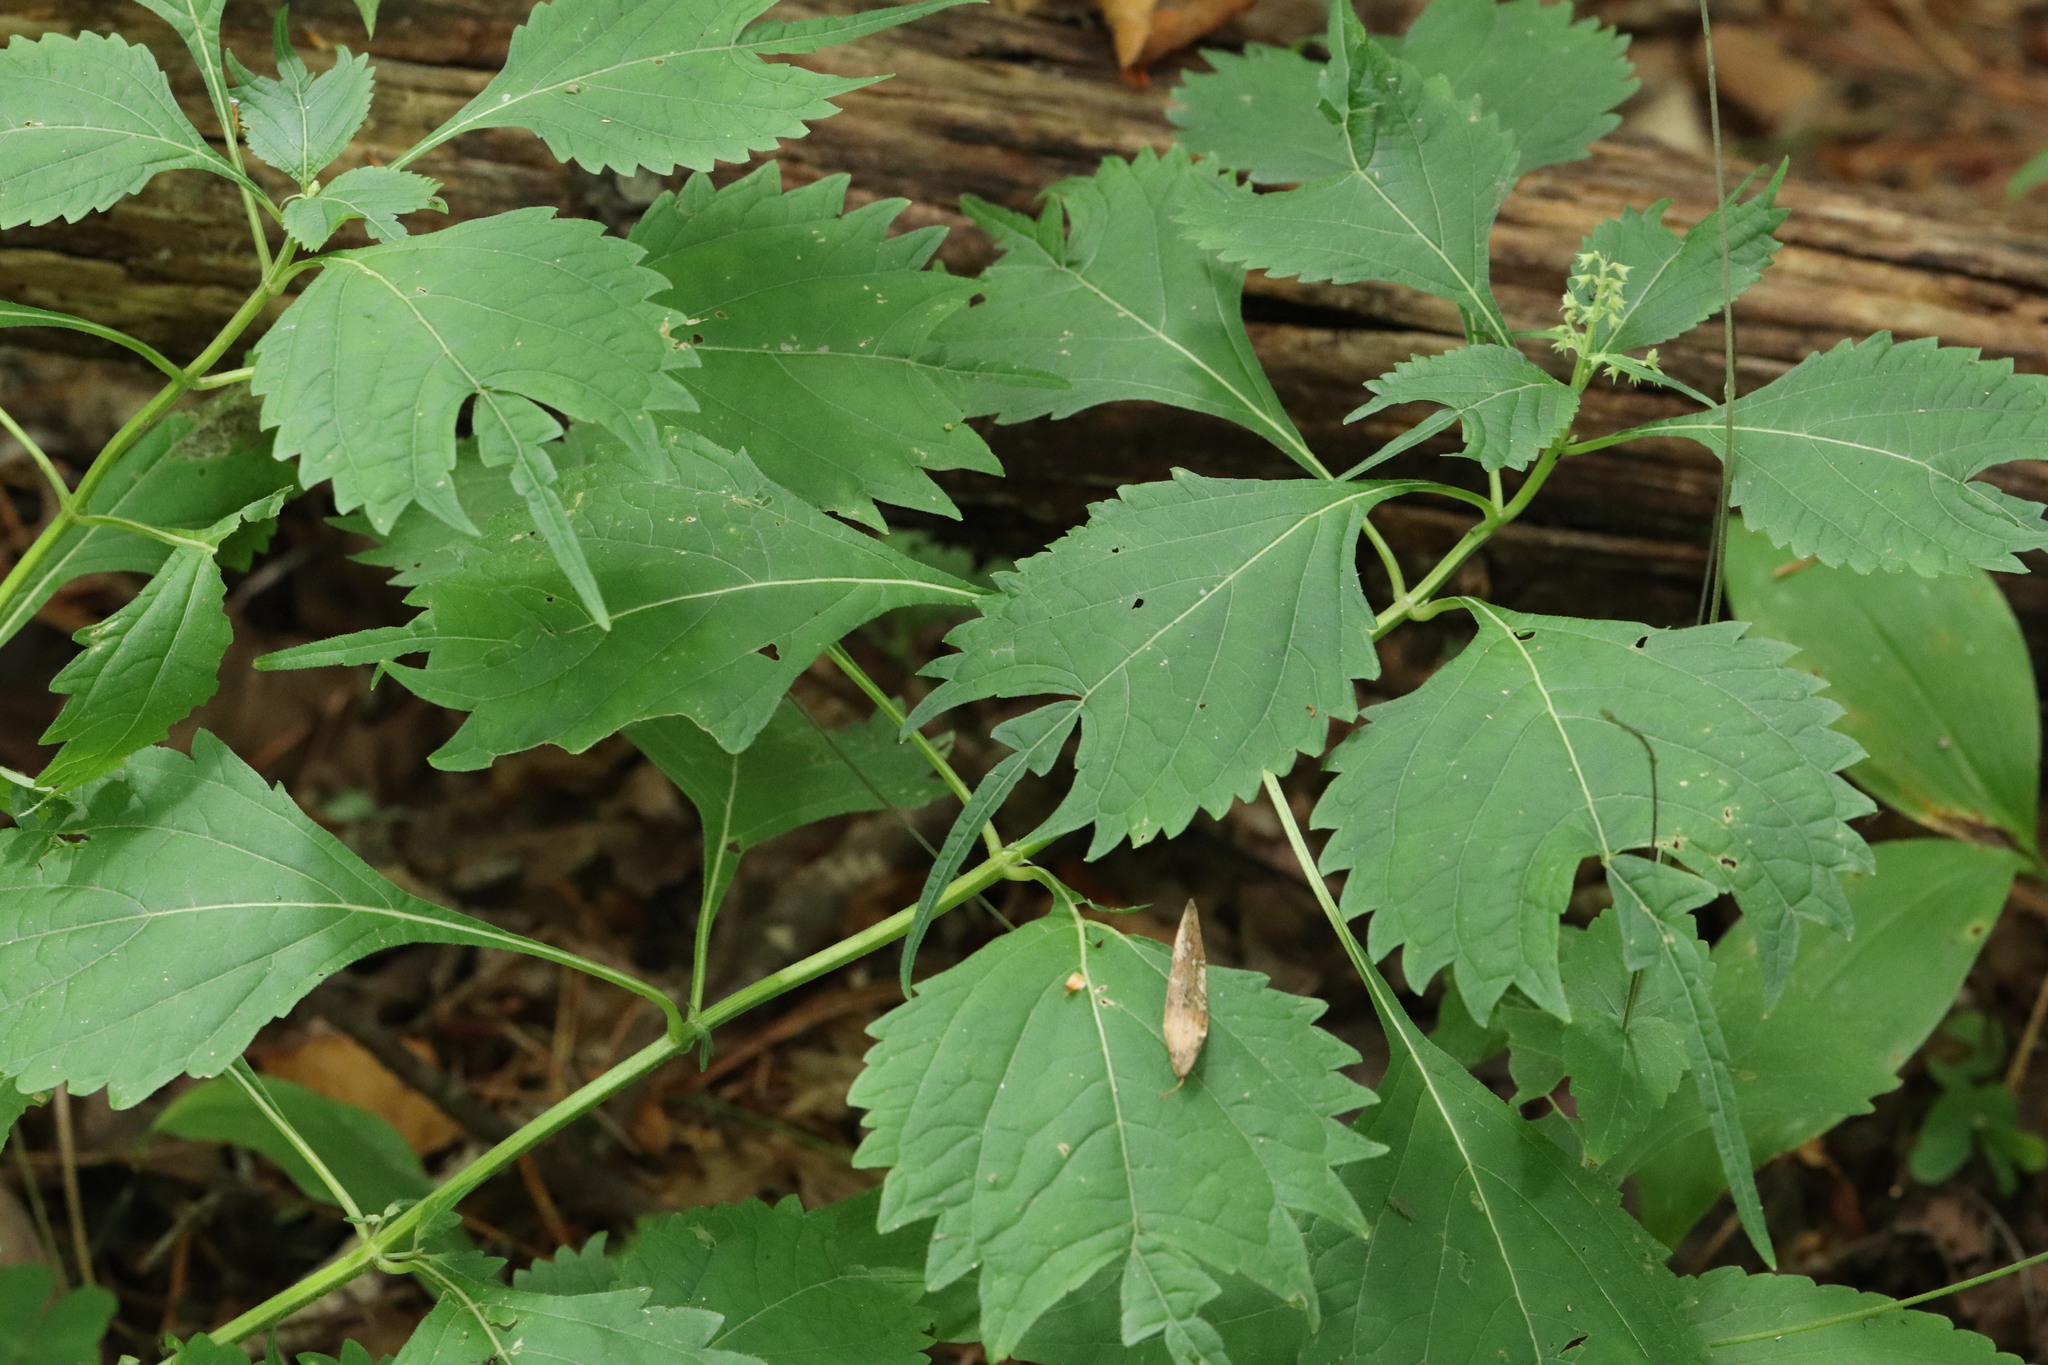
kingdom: Plantae
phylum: Tracheophyta
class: Magnoliopsida
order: Lamiales
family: Lamiaceae
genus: Isodon
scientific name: Isodon excisus
